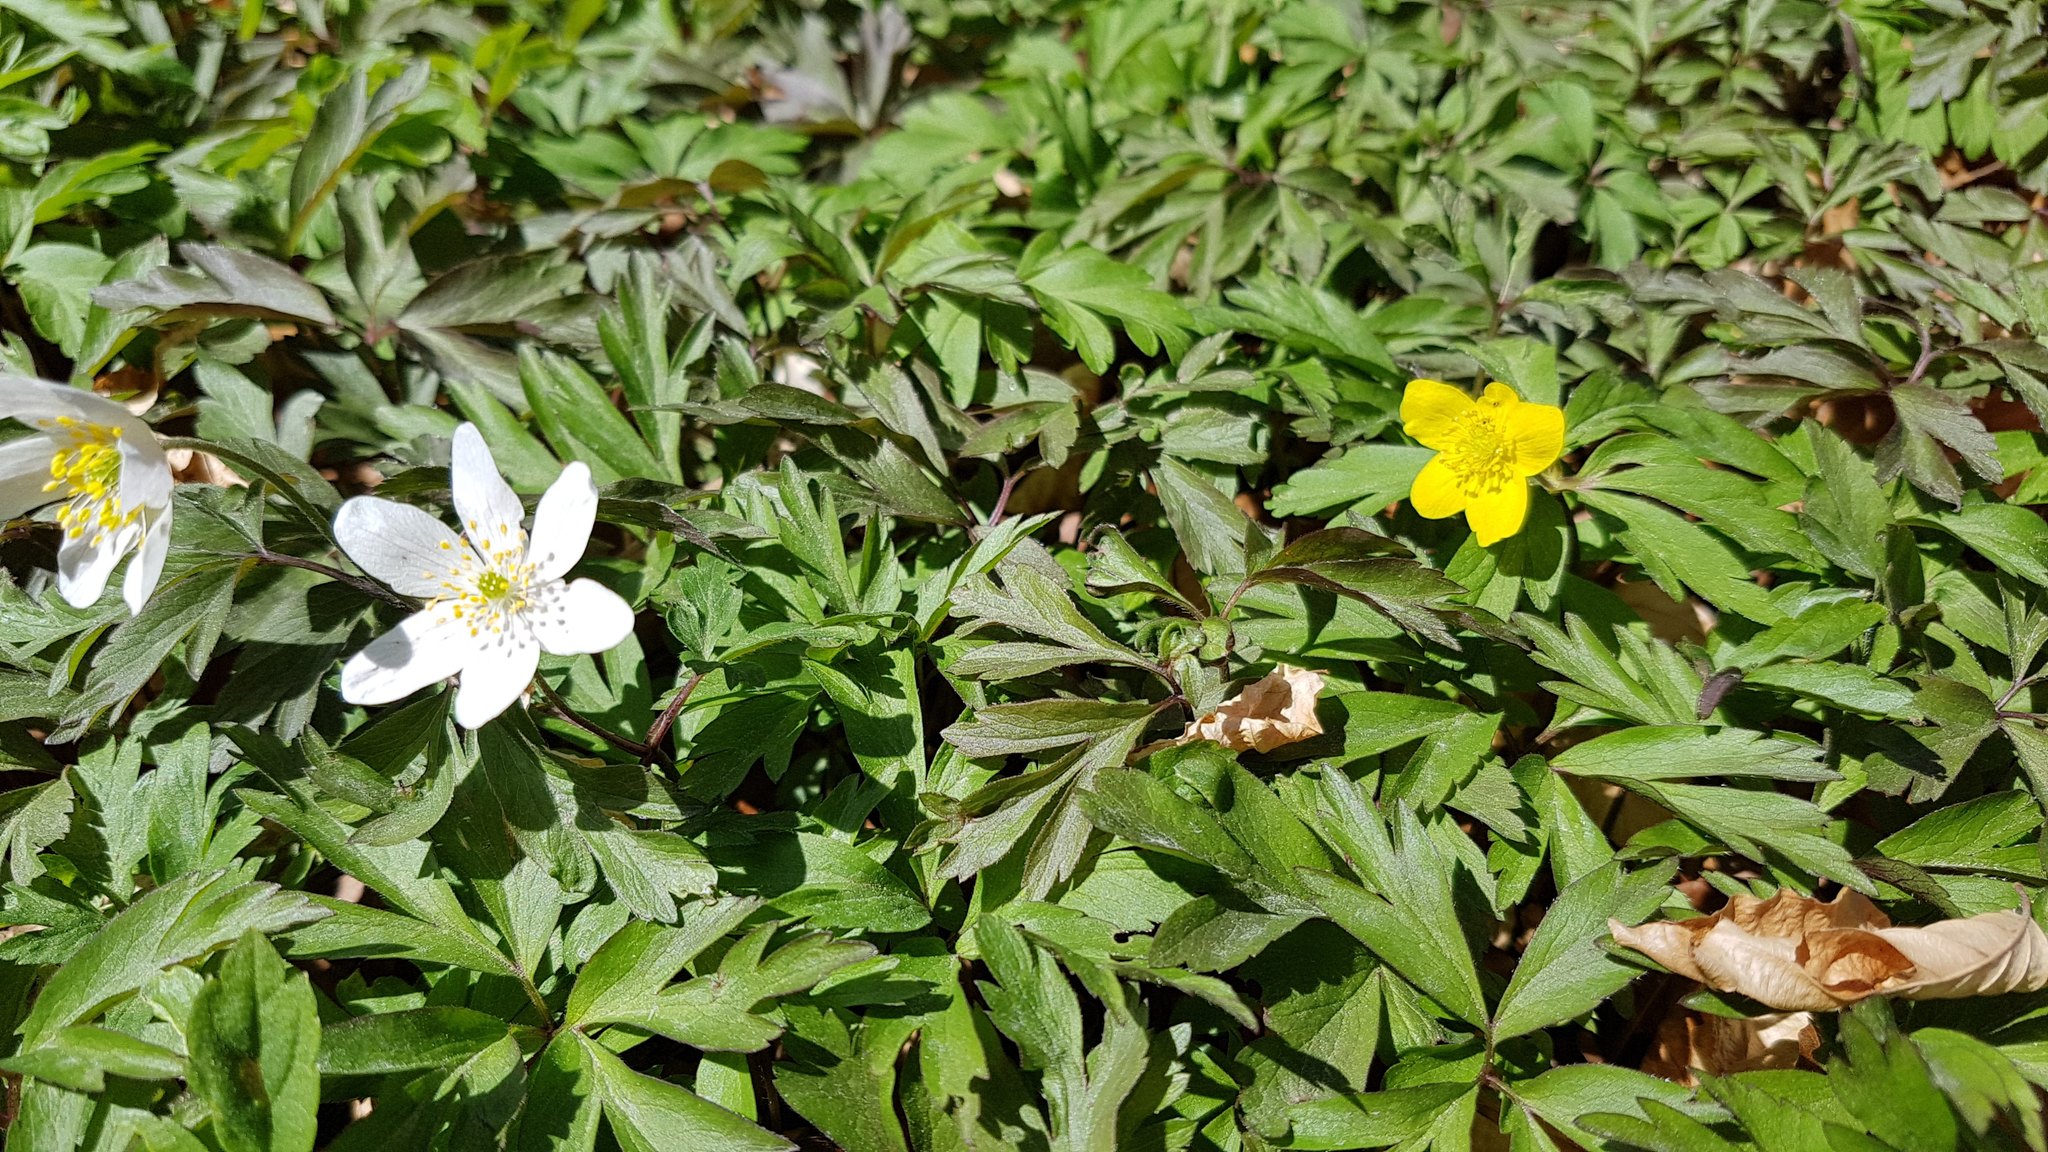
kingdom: Plantae
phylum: Tracheophyta
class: Magnoliopsida
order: Ranunculales
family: Ranunculaceae
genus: Anemone
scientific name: Anemone ranunculoides
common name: Yellow anemone
